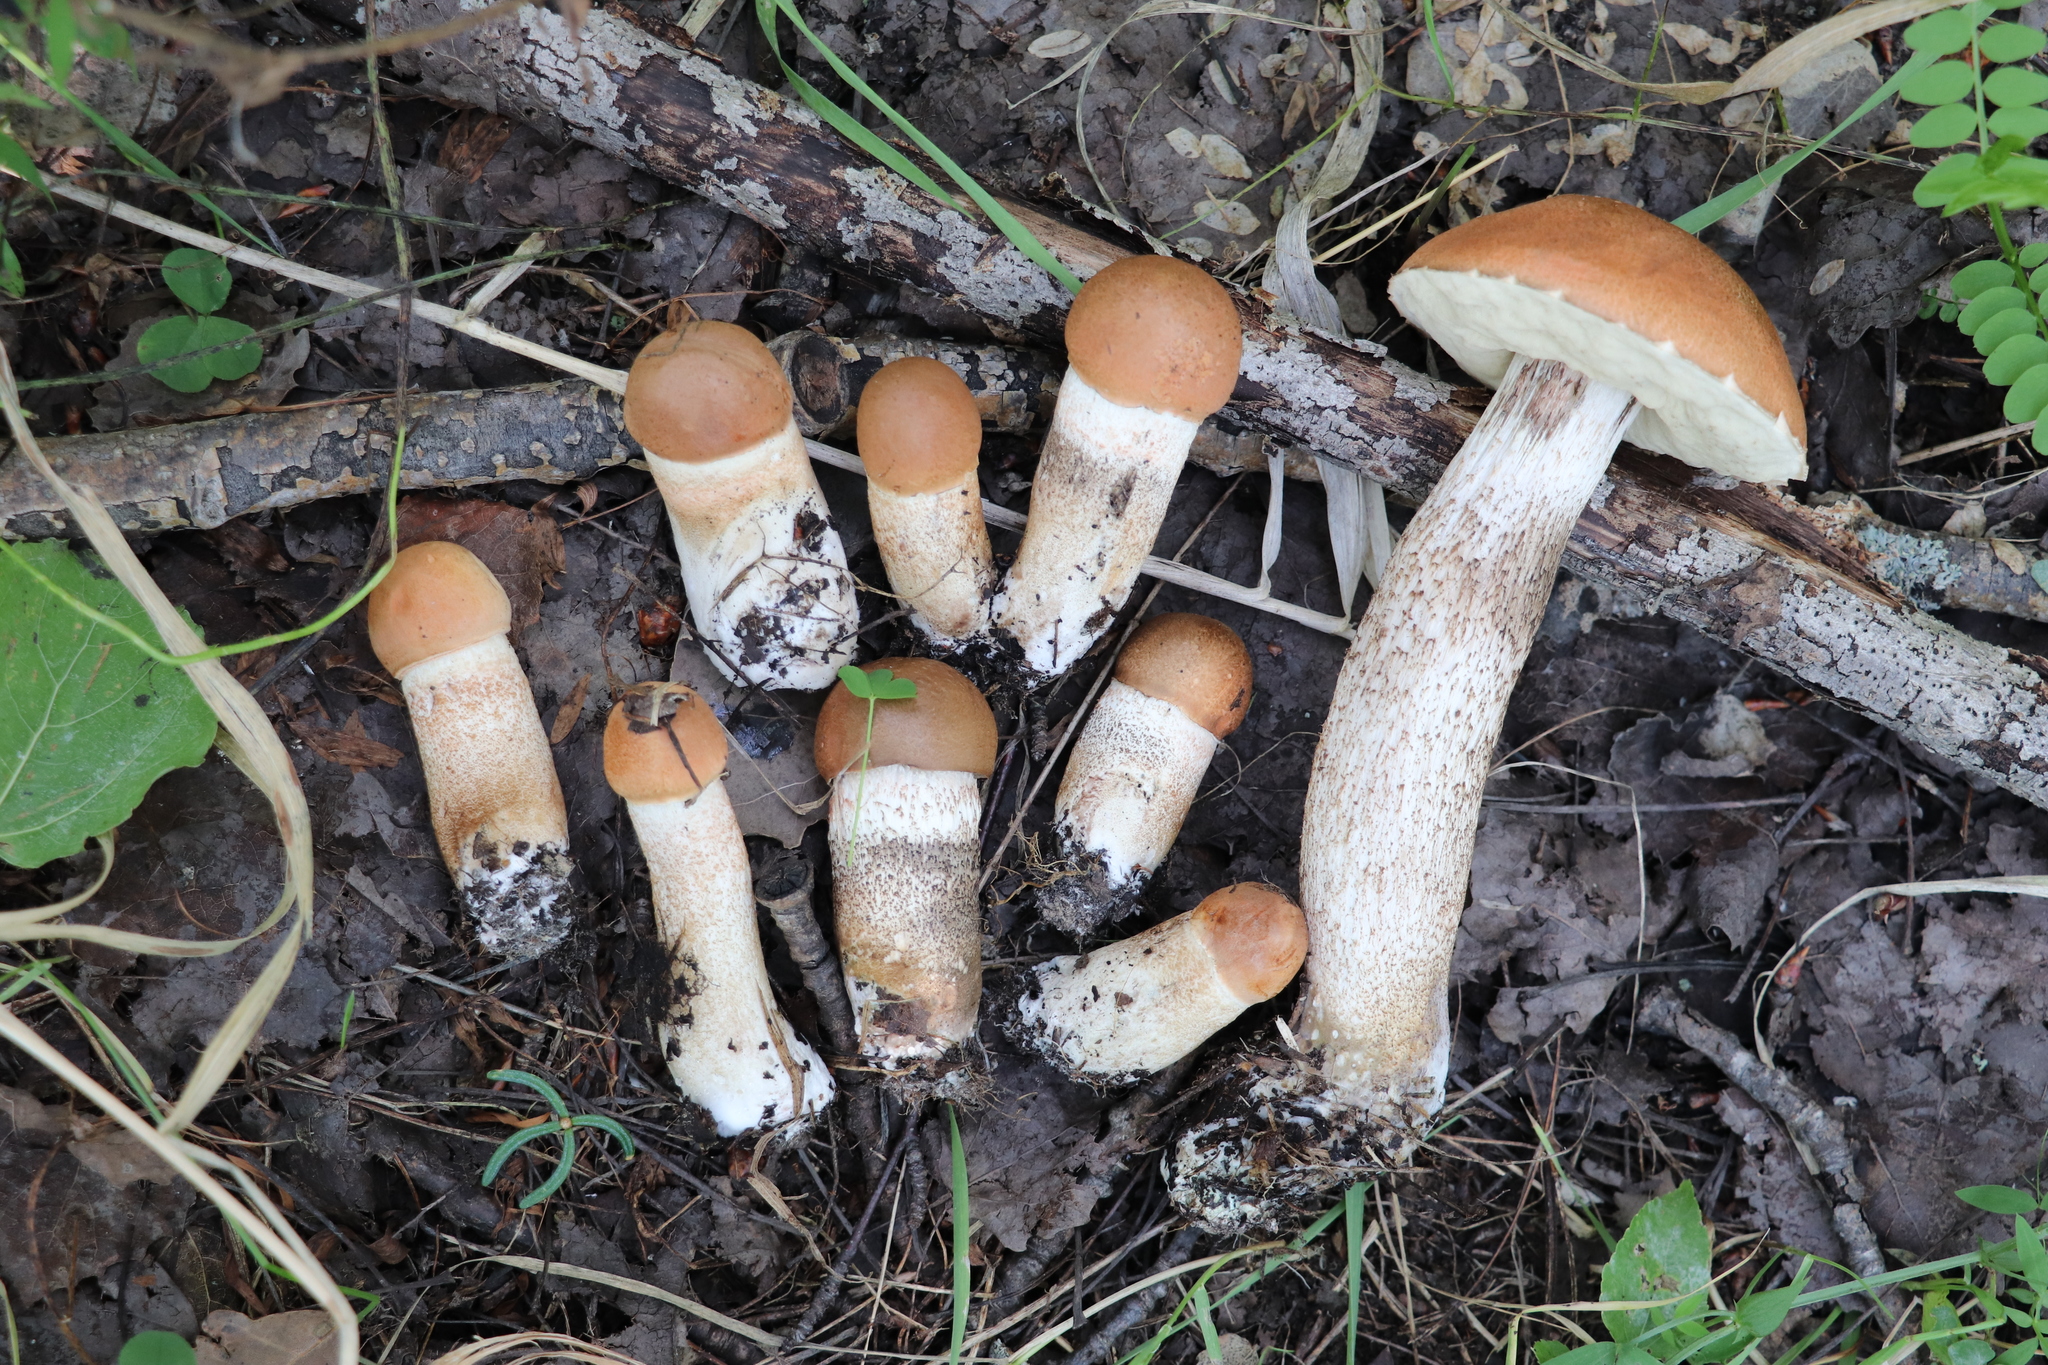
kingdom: Fungi
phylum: Basidiomycota
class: Agaricomycetes
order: Boletales
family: Boletaceae
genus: Leccinum
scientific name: Leccinum aurantiacum
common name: Orange bolete
